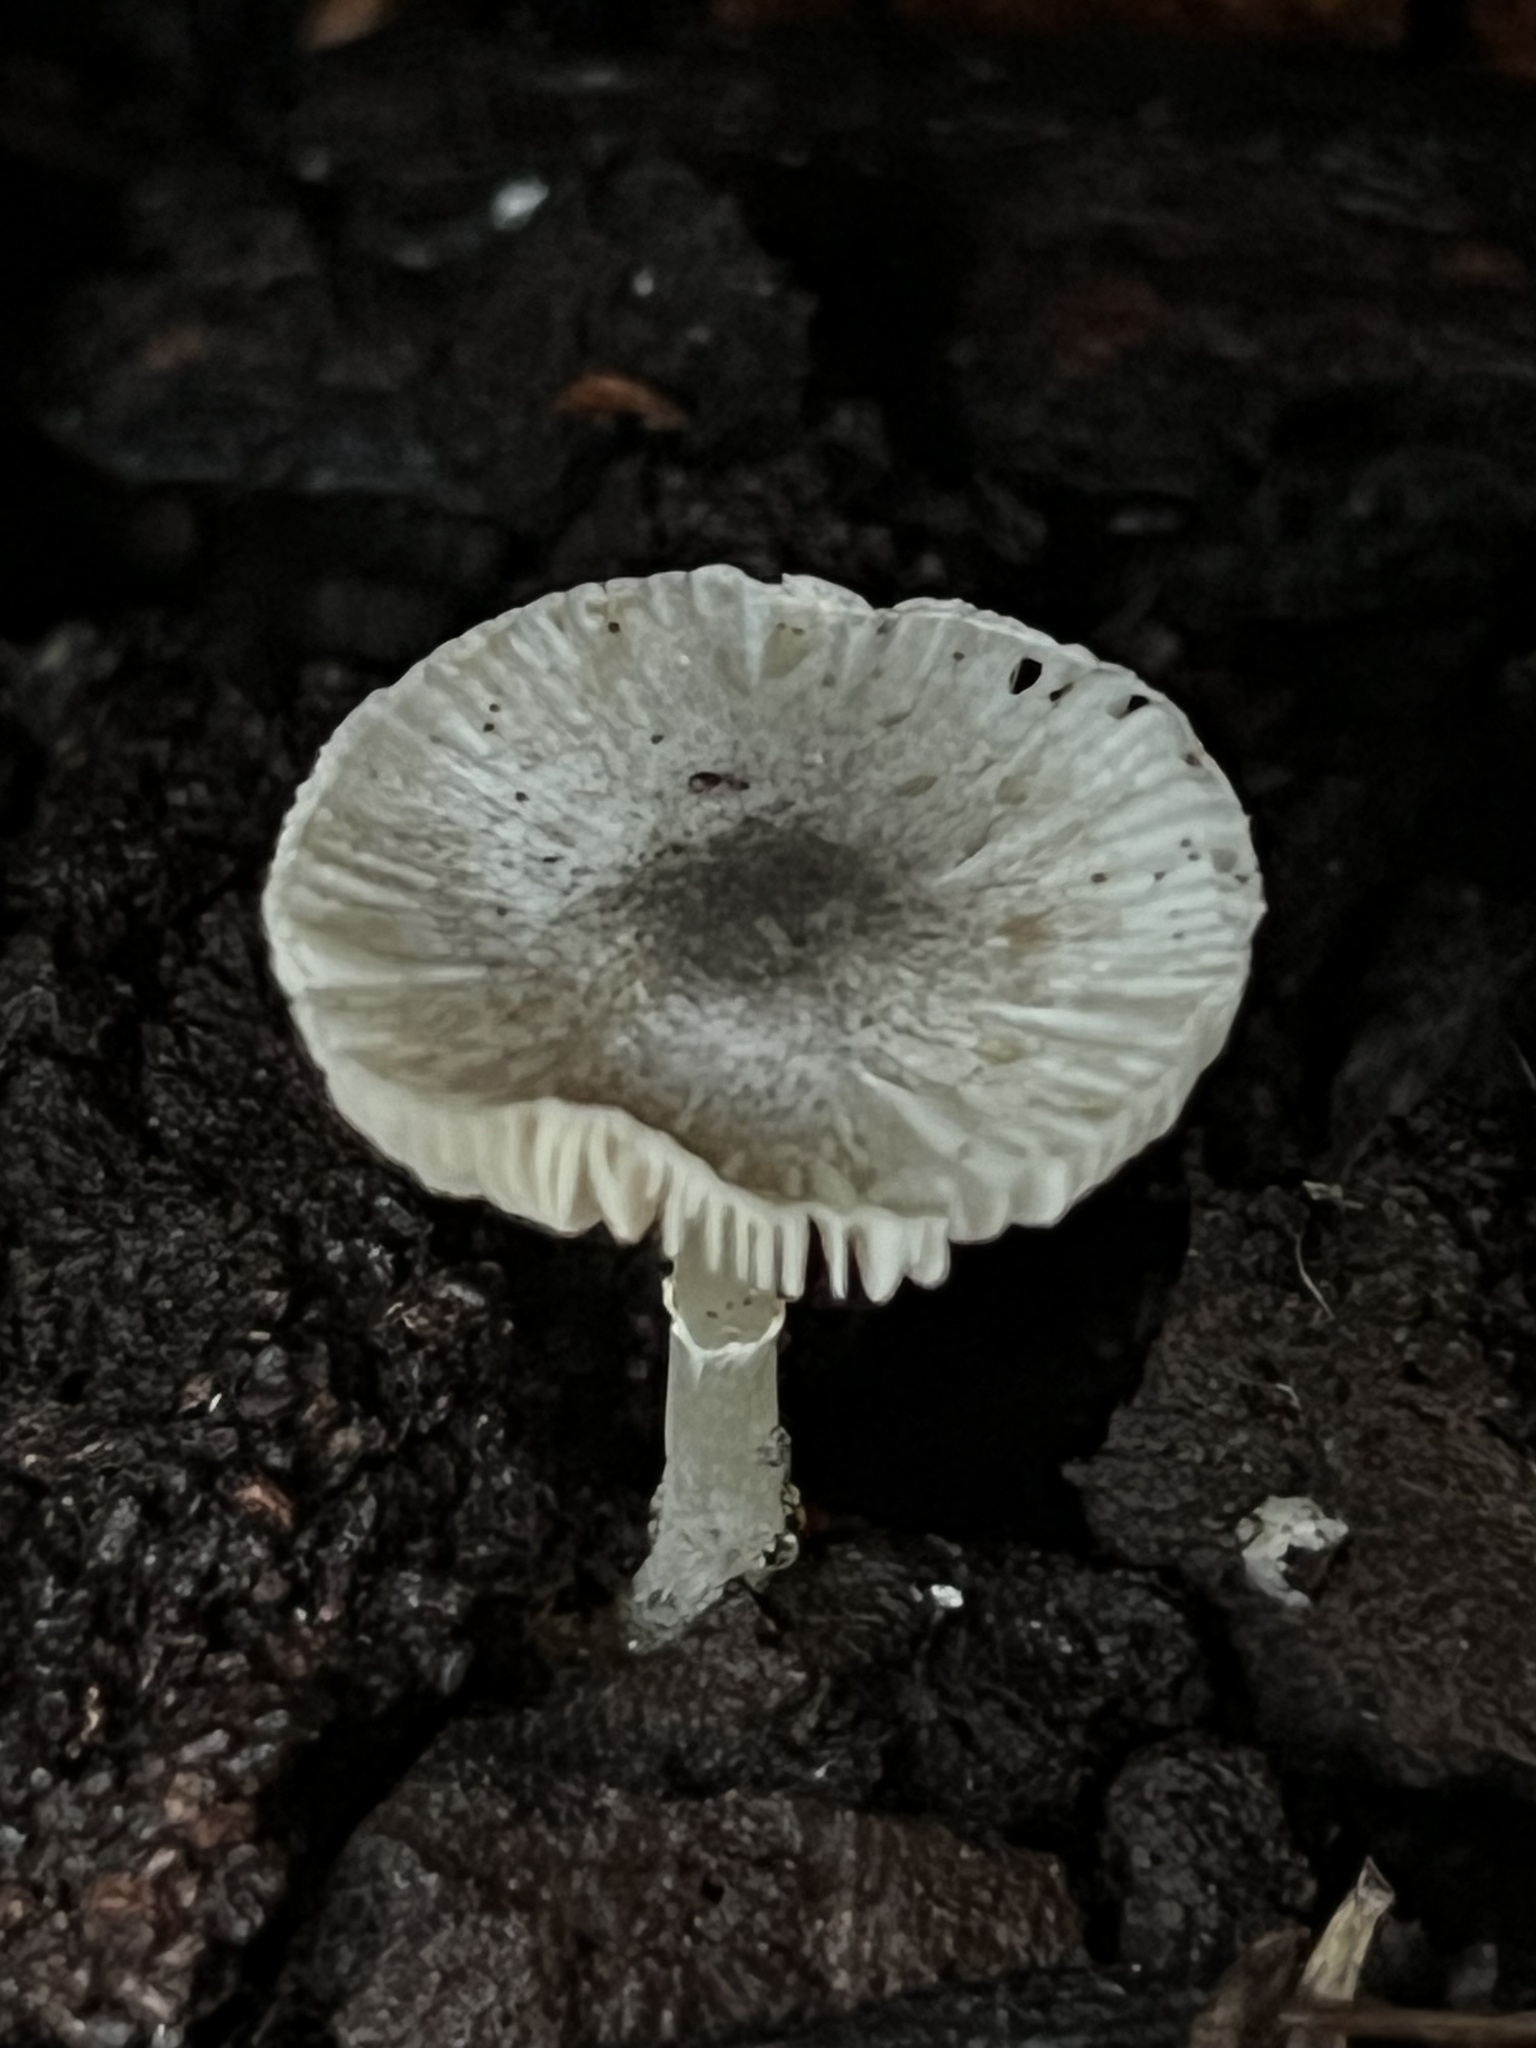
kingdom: Fungi
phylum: Basidiomycota
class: Agaricomycetes
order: Agaricales
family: Agaricaceae
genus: Lepiota
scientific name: Lepiota atrodisca
